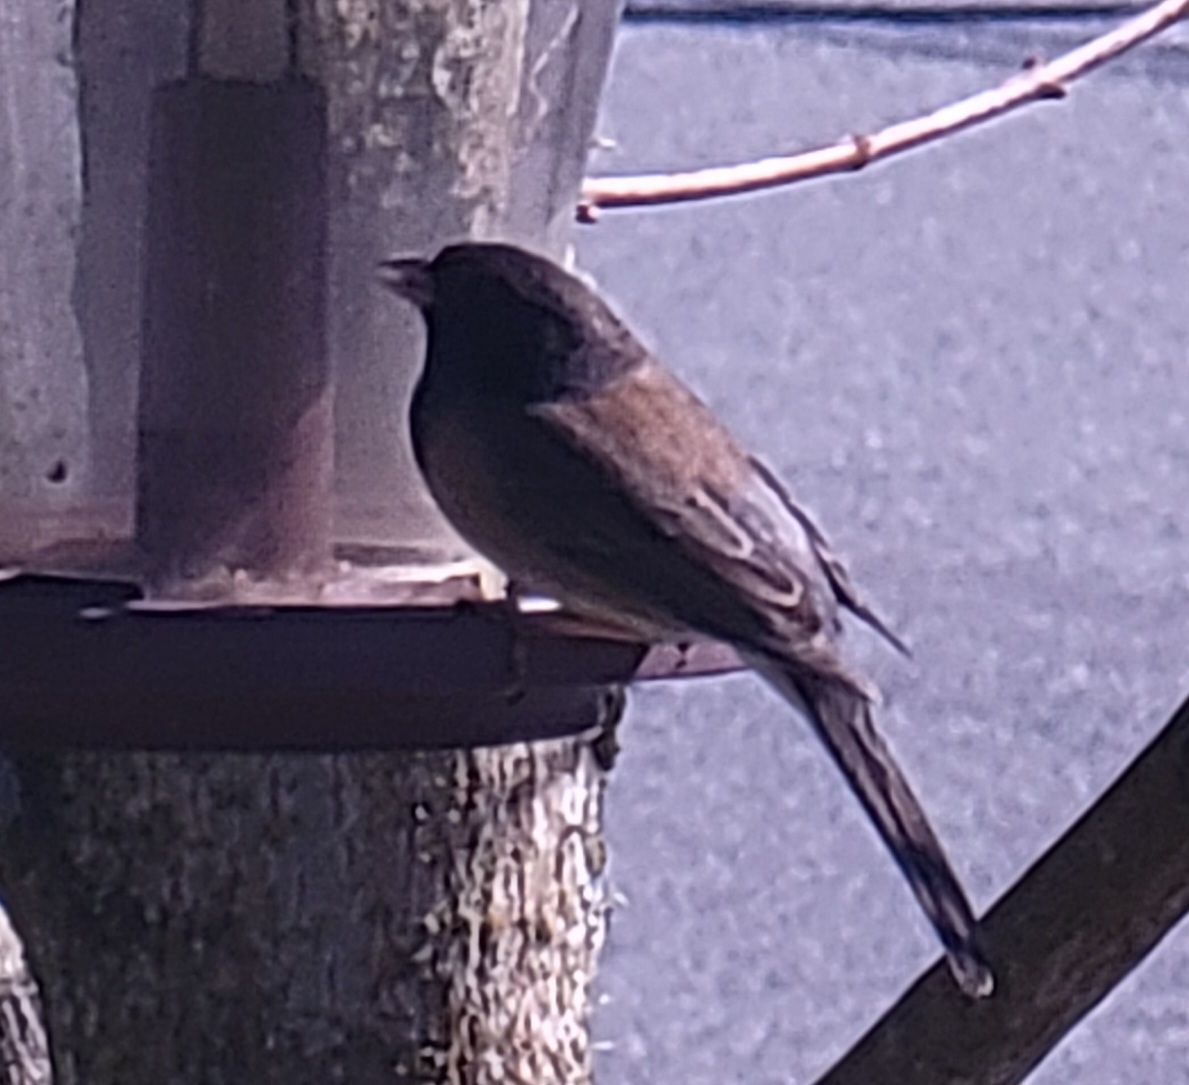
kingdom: Animalia
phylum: Chordata
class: Aves
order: Passeriformes
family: Passerellidae
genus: Junco
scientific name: Junco hyemalis
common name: Dark-eyed junco
